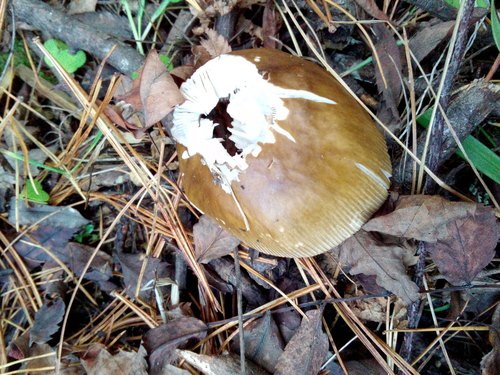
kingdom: Fungi
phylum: Basidiomycota
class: Agaricomycetes
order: Agaricales
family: Amanitaceae
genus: Amanita
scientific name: Amanita fulva
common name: Tawny grisette
